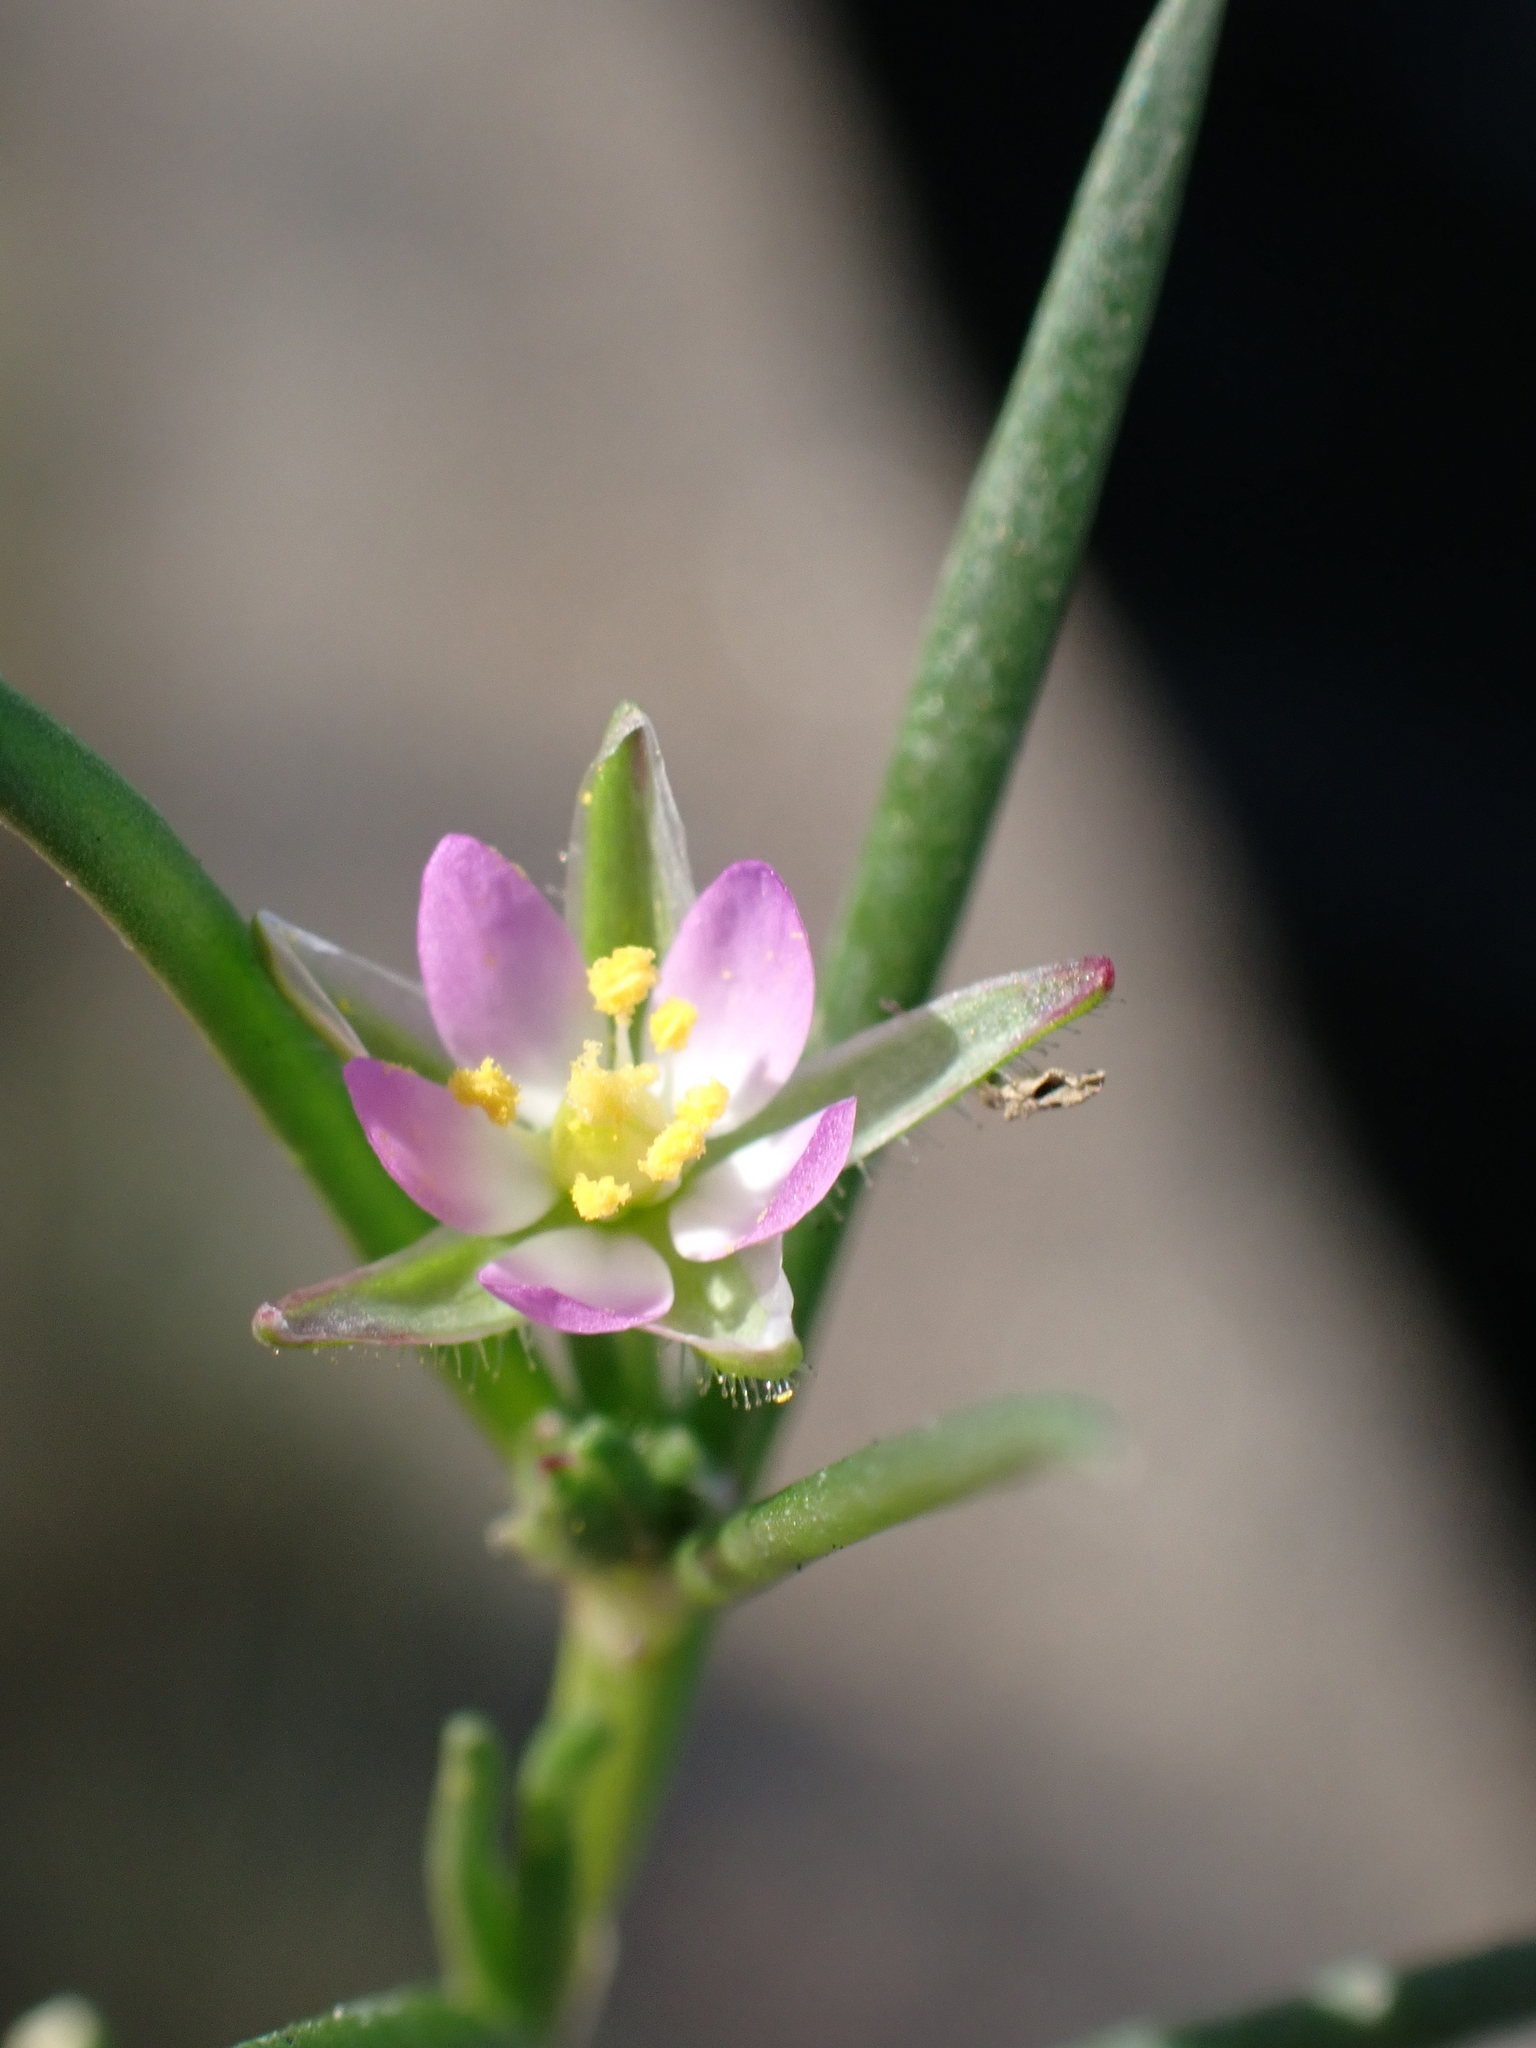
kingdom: Plantae
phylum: Tracheophyta
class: Magnoliopsida
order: Caryophyllales
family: Caryophyllaceae
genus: Spergularia
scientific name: Spergularia marina
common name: Lesser sea-spurrey
